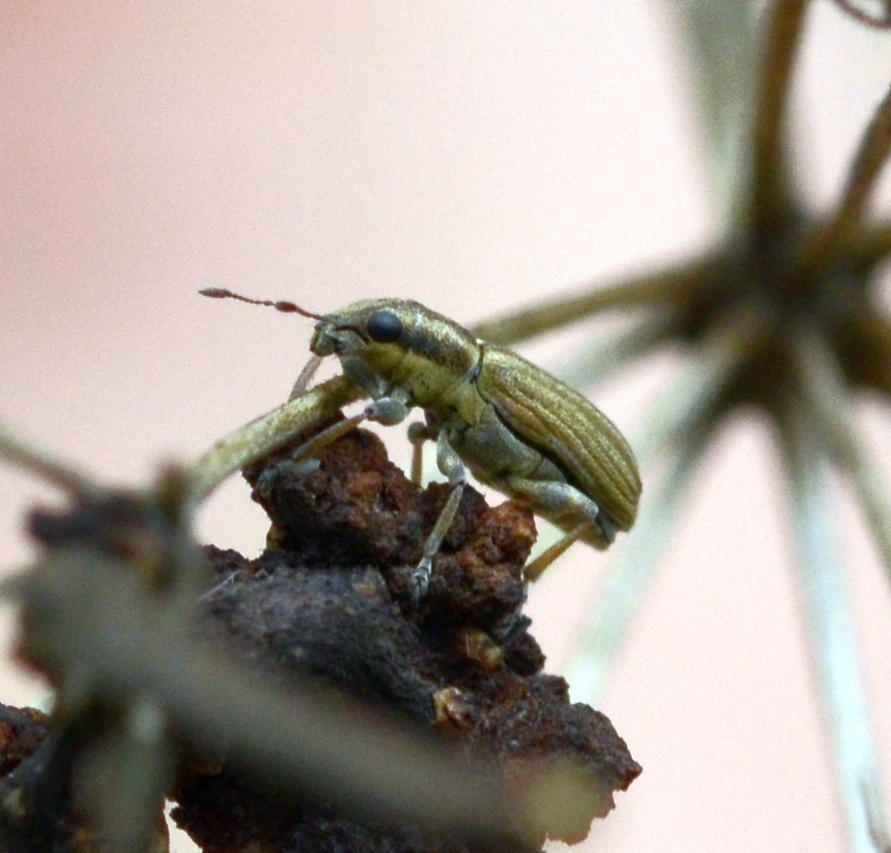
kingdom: Animalia
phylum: Arthropoda
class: Insecta
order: Coleoptera
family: Curculionidae
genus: Sitona
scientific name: Sitona lineatus
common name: Weevil
